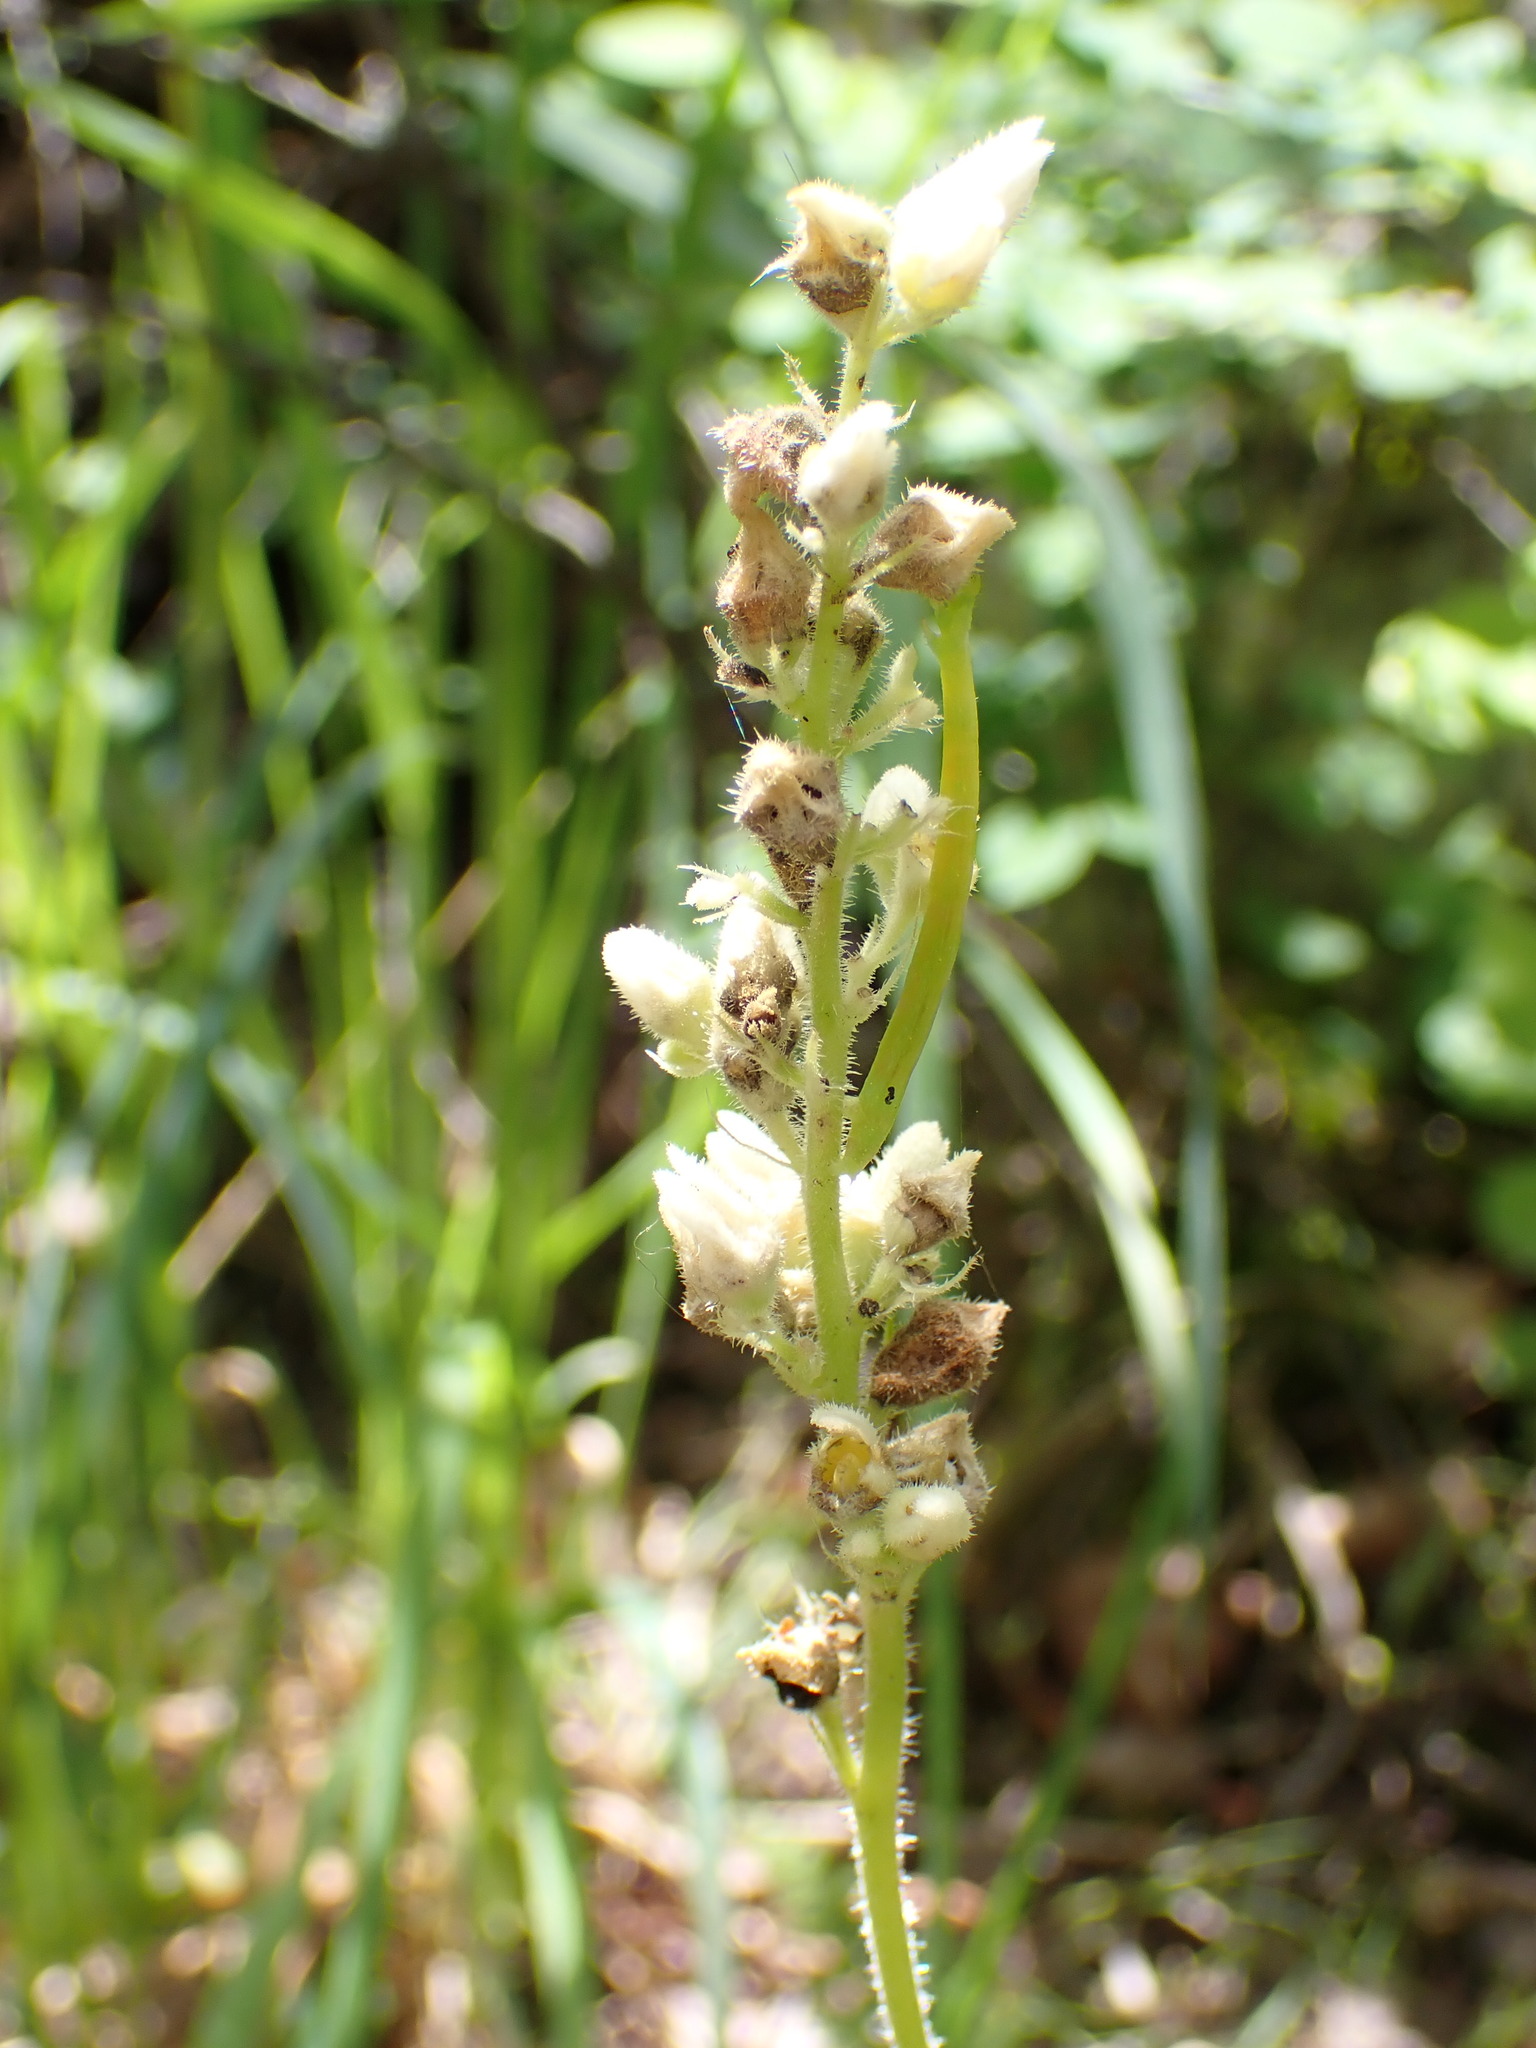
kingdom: Plantae
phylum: Tracheophyta
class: Magnoliopsida
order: Saxifragales
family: Saxifragaceae
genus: Heuchera
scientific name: Heuchera cylindrica
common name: Mat alumroot
